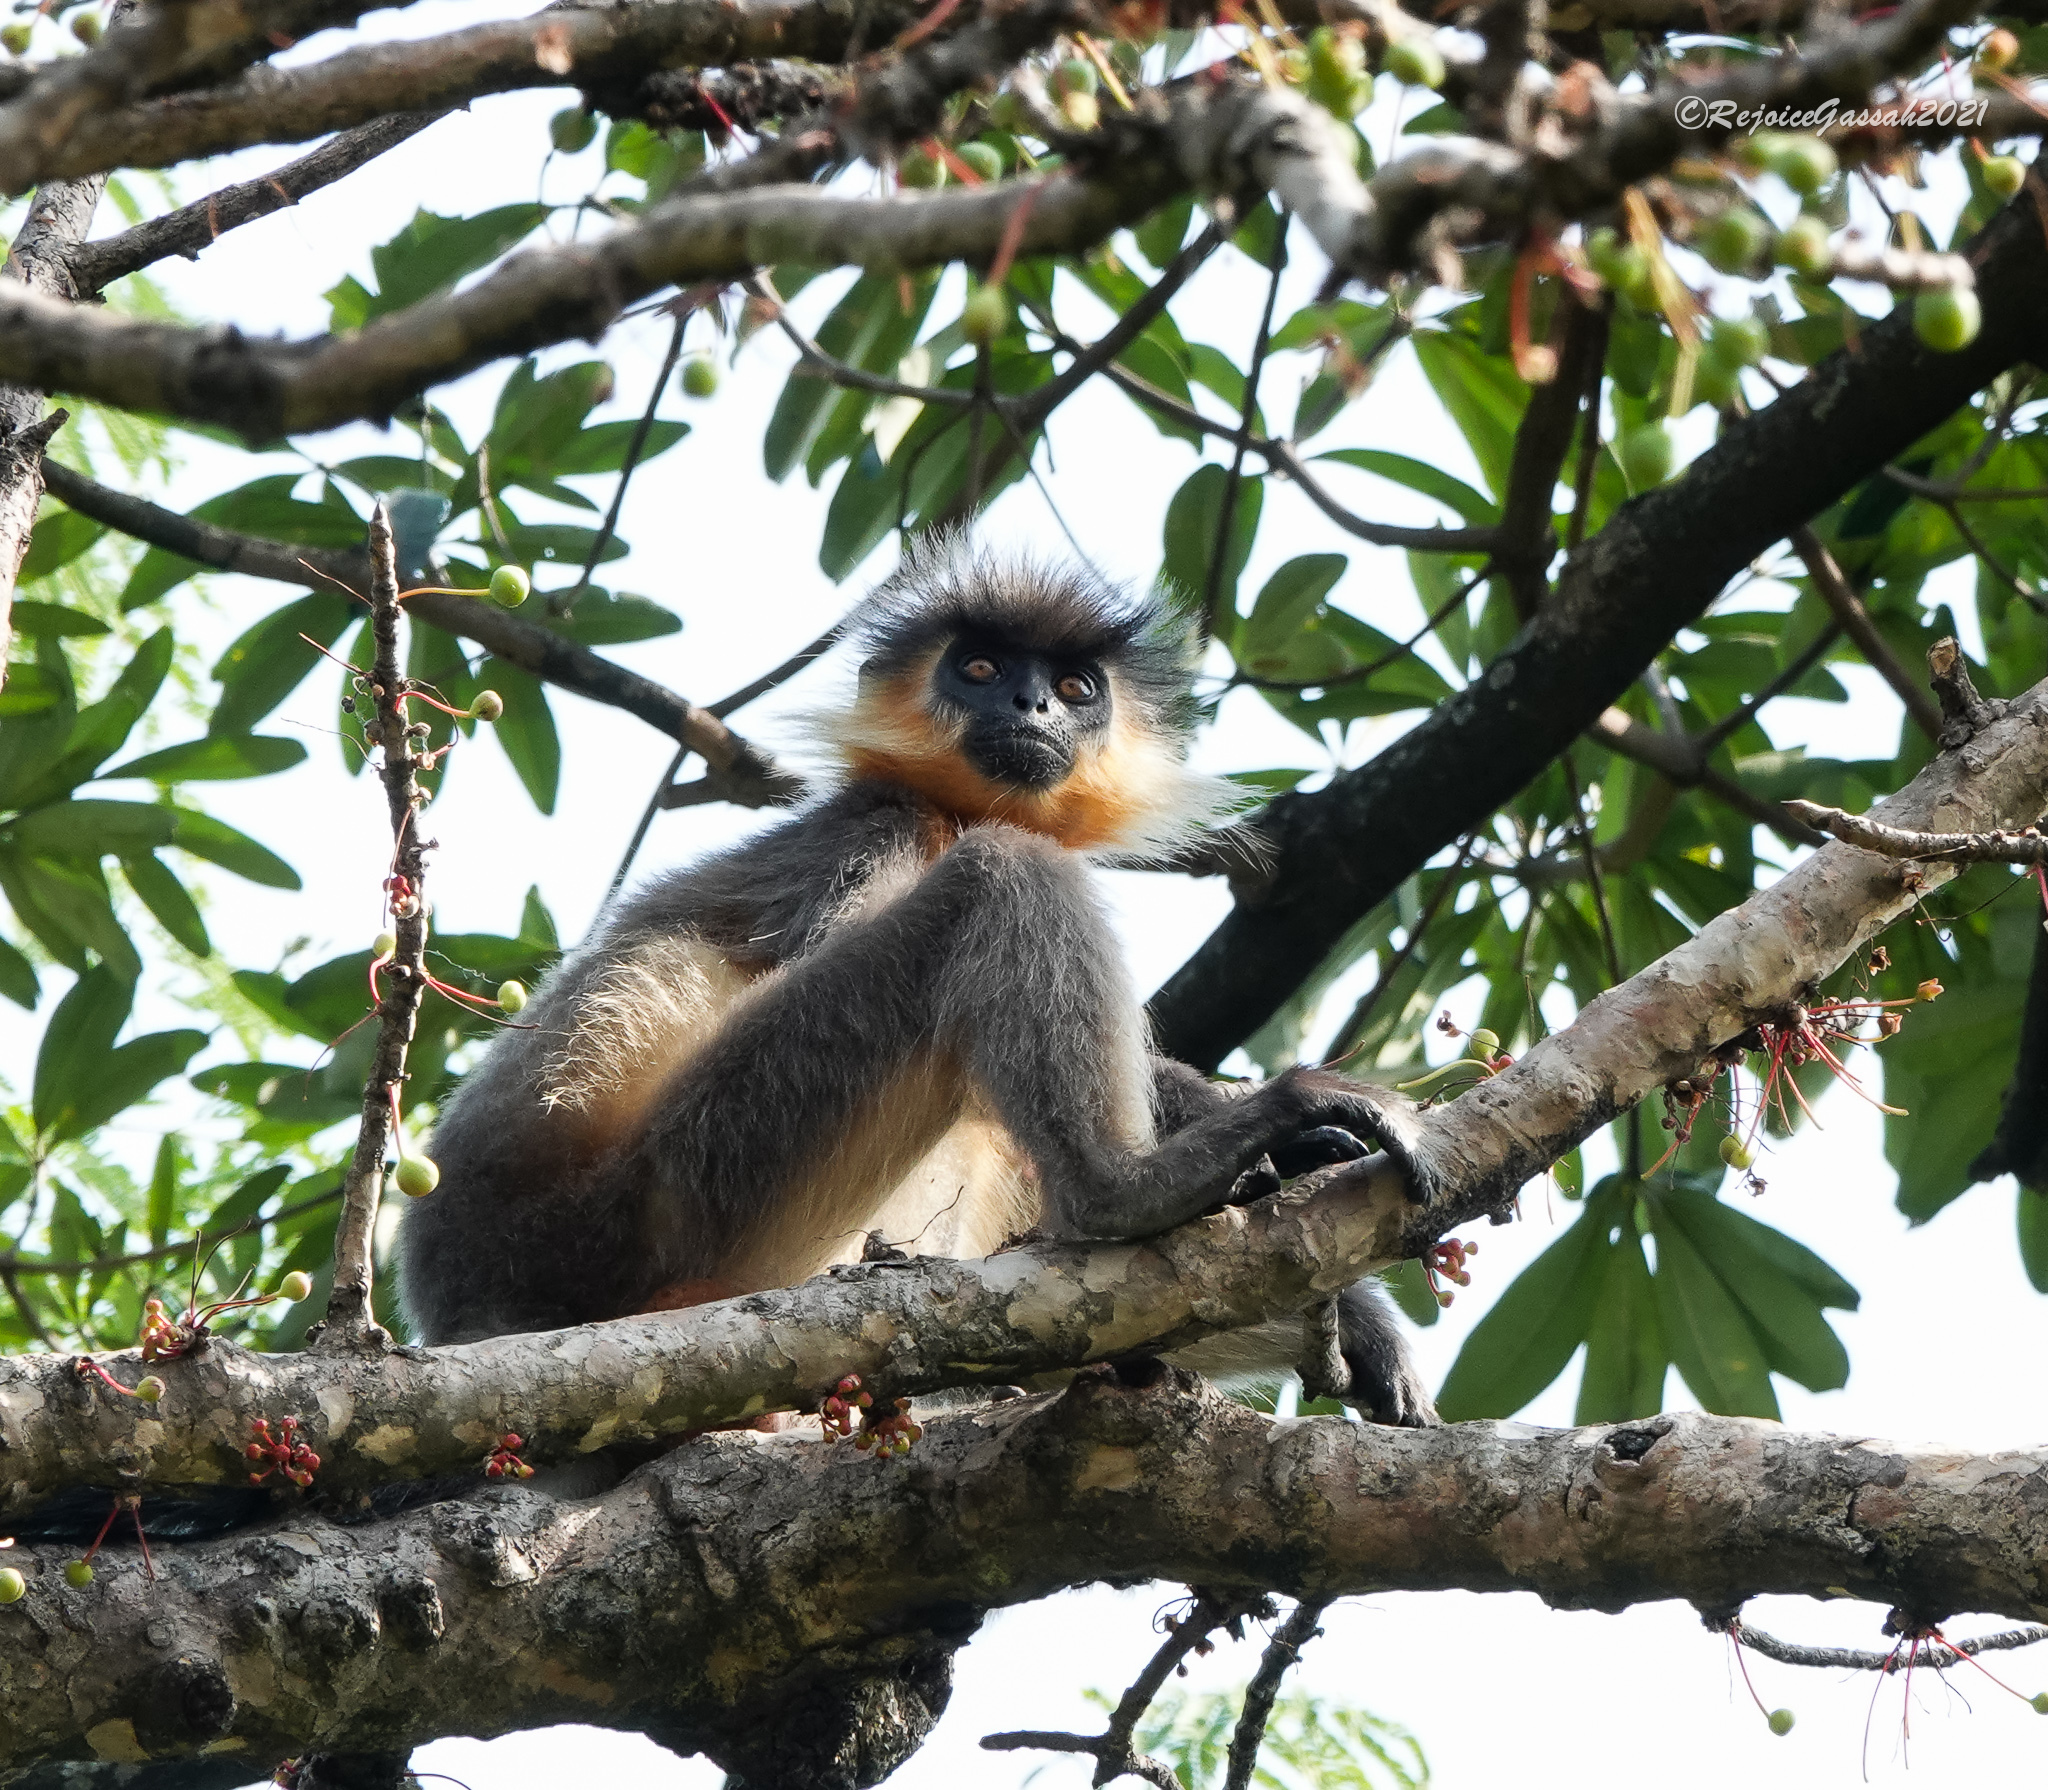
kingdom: Animalia
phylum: Chordata
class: Mammalia
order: Primates
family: Cercopithecidae
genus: Trachypithecus
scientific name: Trachypithecus pileatus
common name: Capped langur
